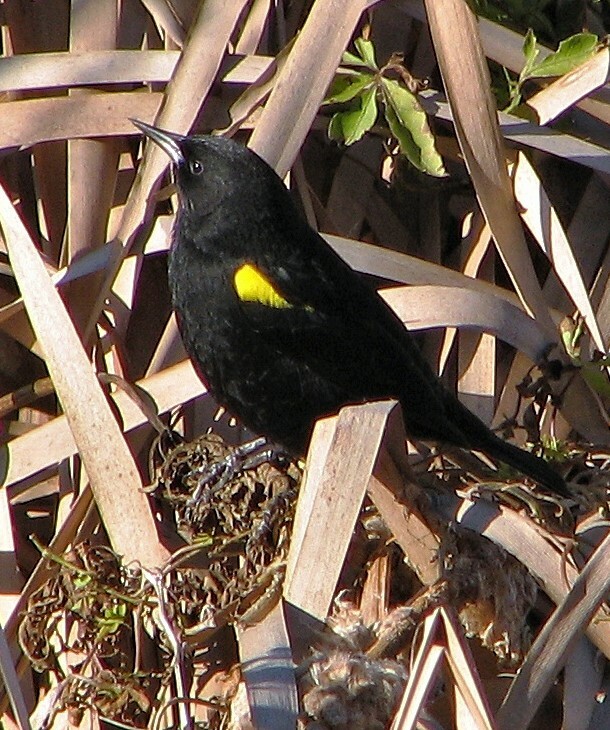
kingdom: Animalia
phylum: Chordata
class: Aves
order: Passeriformes
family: Icteridae
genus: Agelasticus
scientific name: Agelasticus thilius
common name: Yellow-winged blackbird
